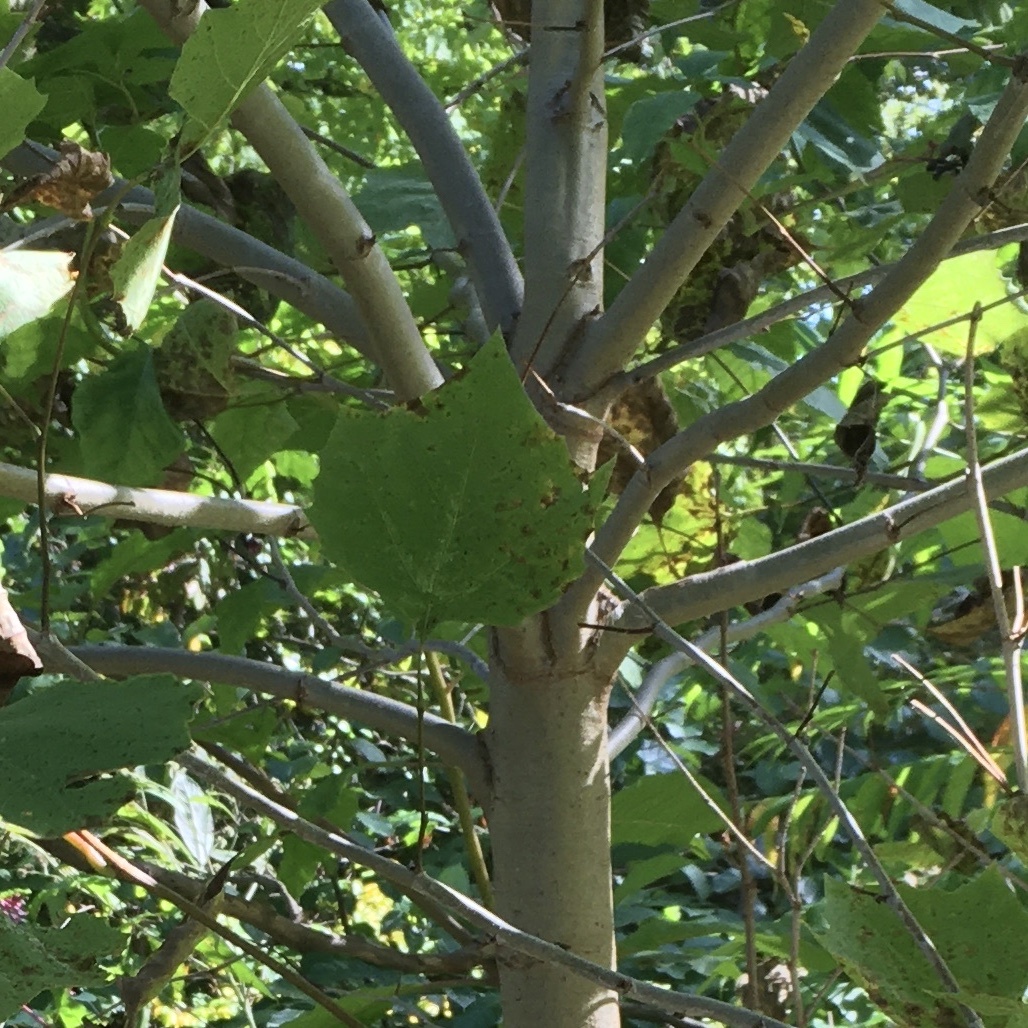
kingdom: Plantae
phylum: Tracheophyta
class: Magnoliopsida
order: Proteales
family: Platanaceae
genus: Platanus
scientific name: Platanus occidentalis
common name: American sycamore
